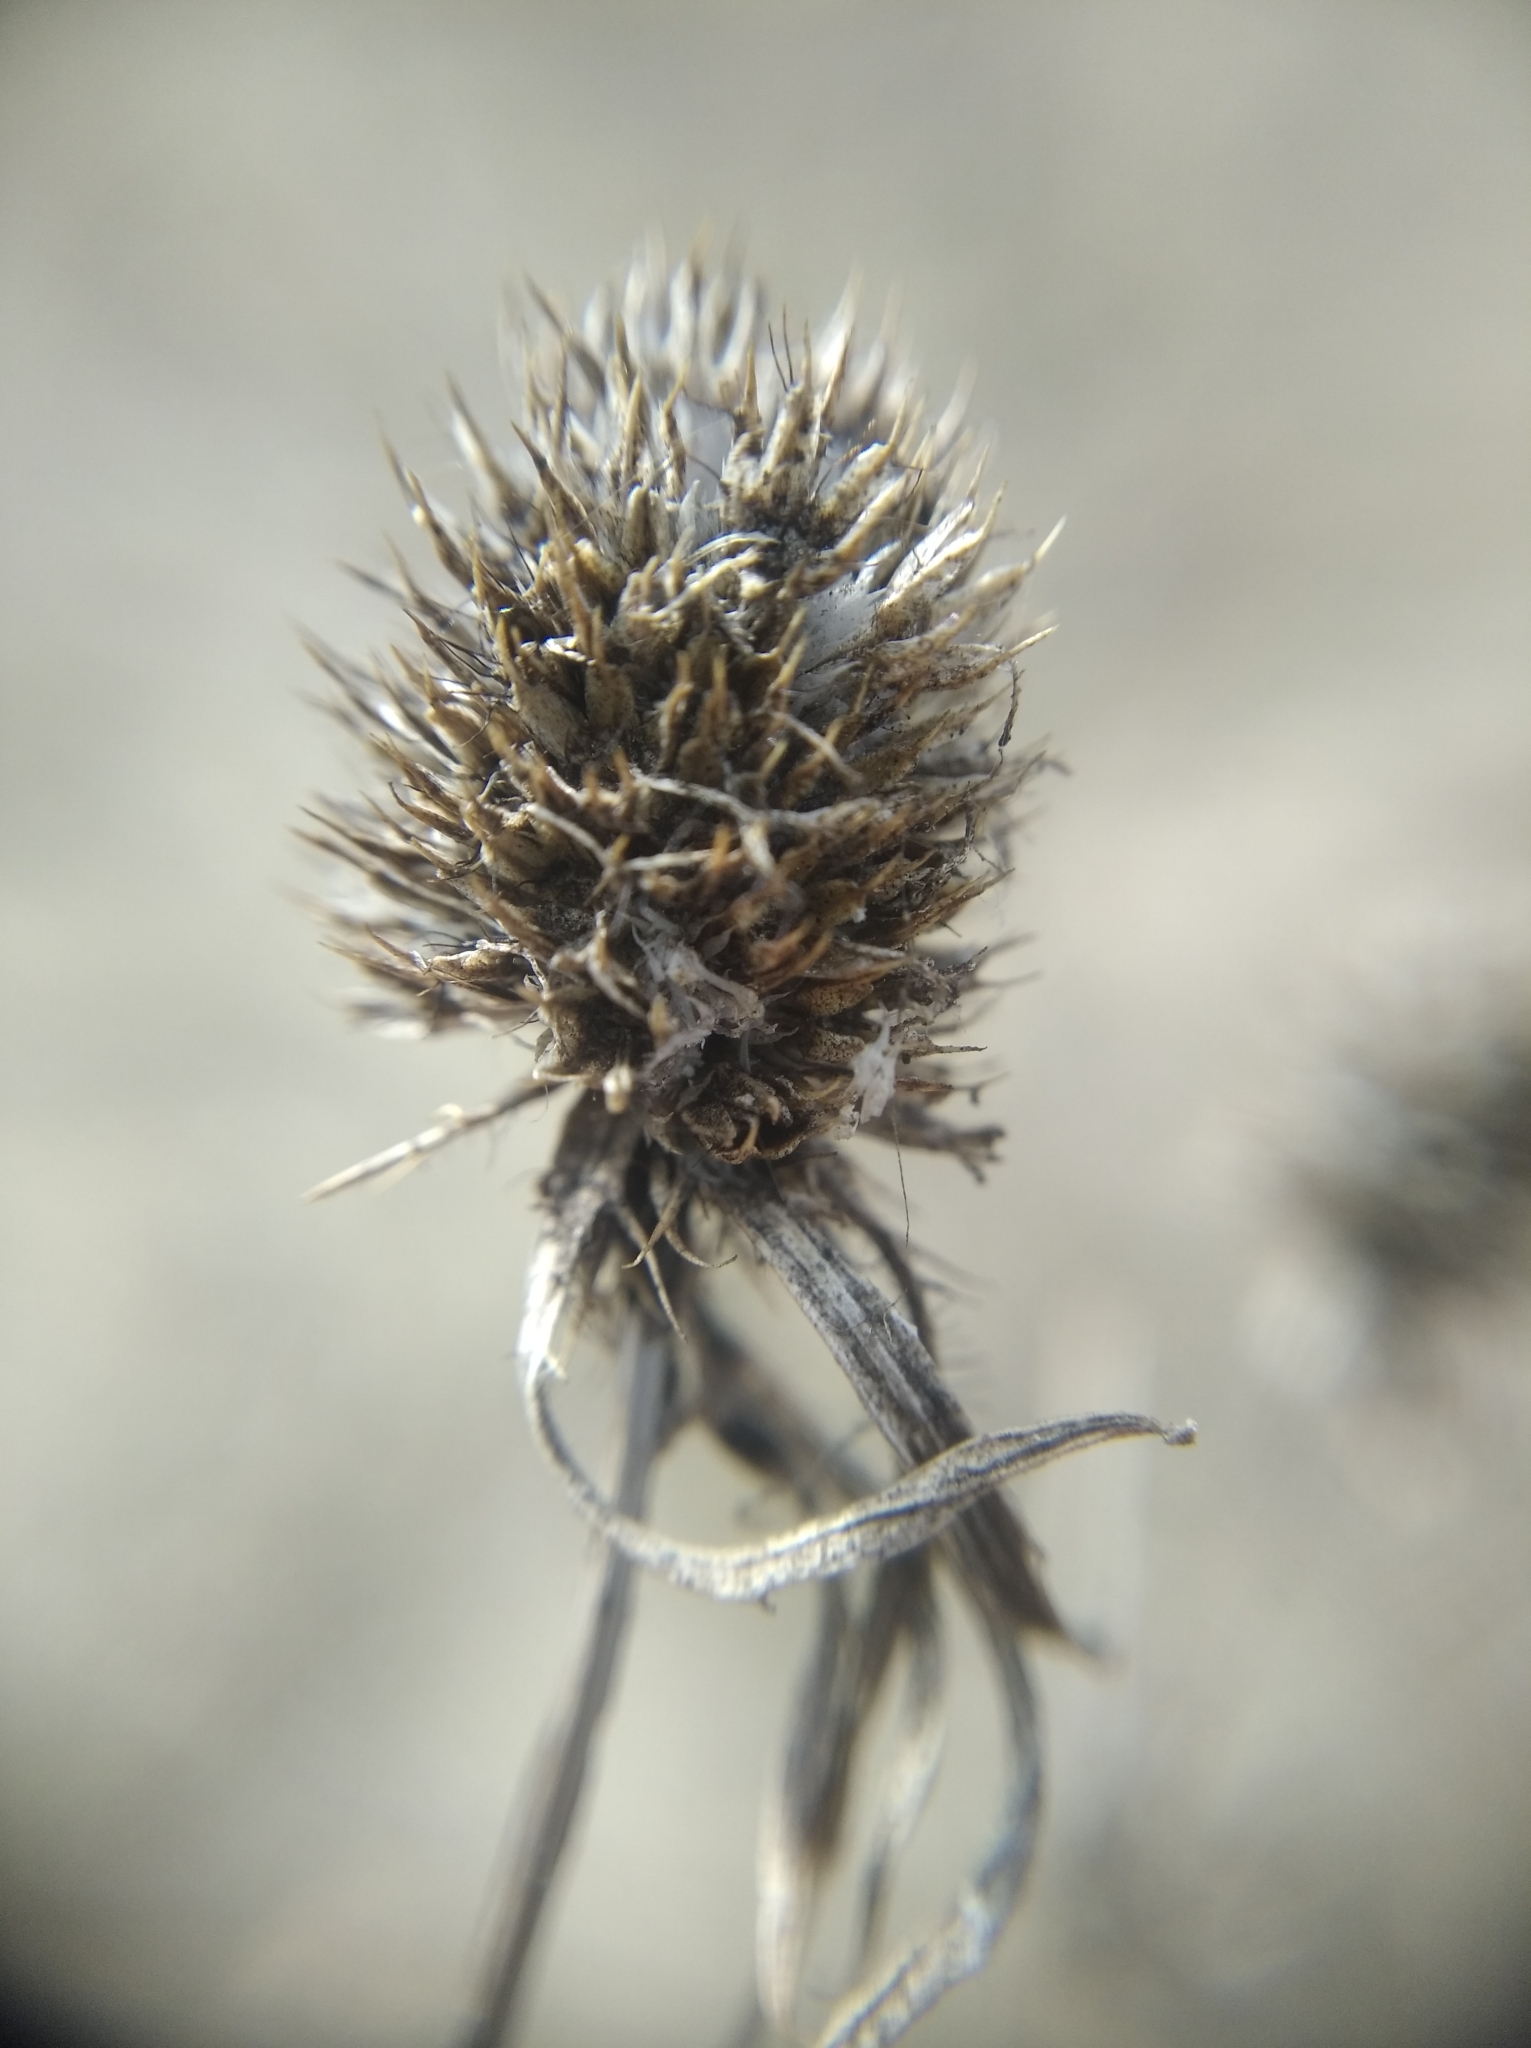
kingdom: Plantae
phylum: Tracheophyta
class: Magnoliopsida
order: Apiales
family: Apiaceae
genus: Eryngium
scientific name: Eryngium planum
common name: Blue eryngo
